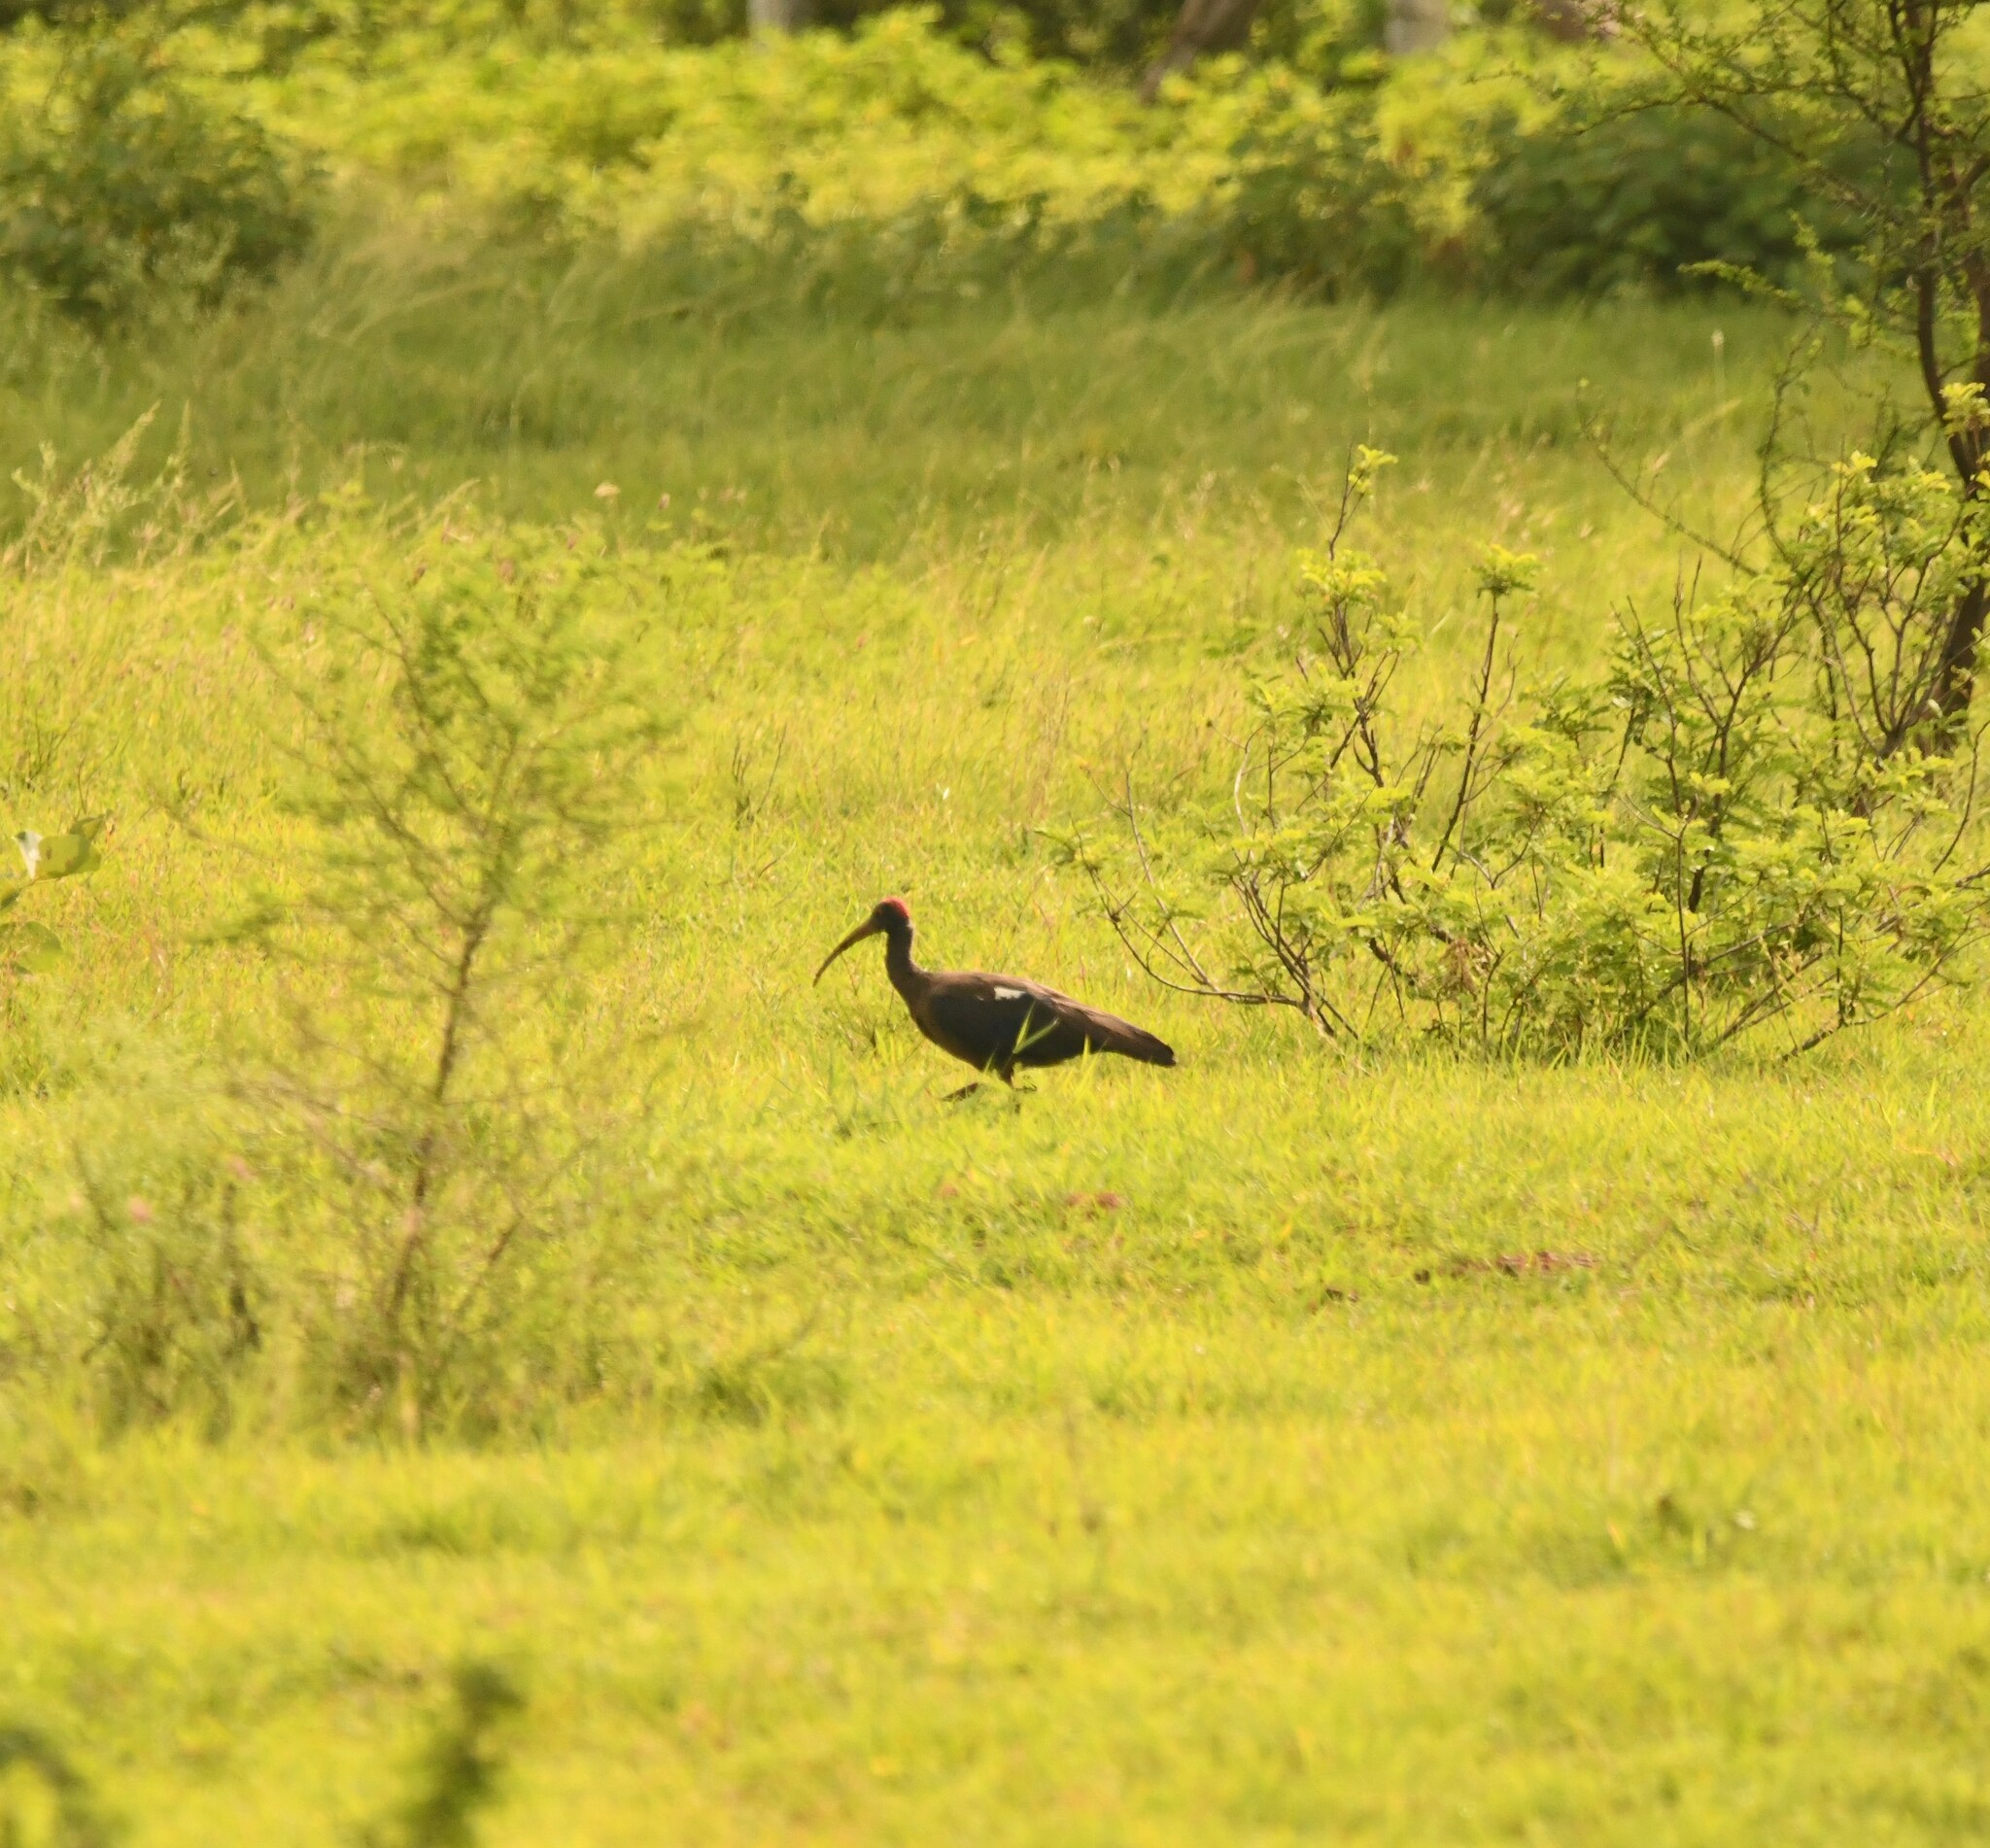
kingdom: Animalia
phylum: Chordata
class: Aves
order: Pelecaniformes
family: Threskiornithidae
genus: Pseudibis
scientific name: Pseudibis papillosa
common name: Red-naped ibis
